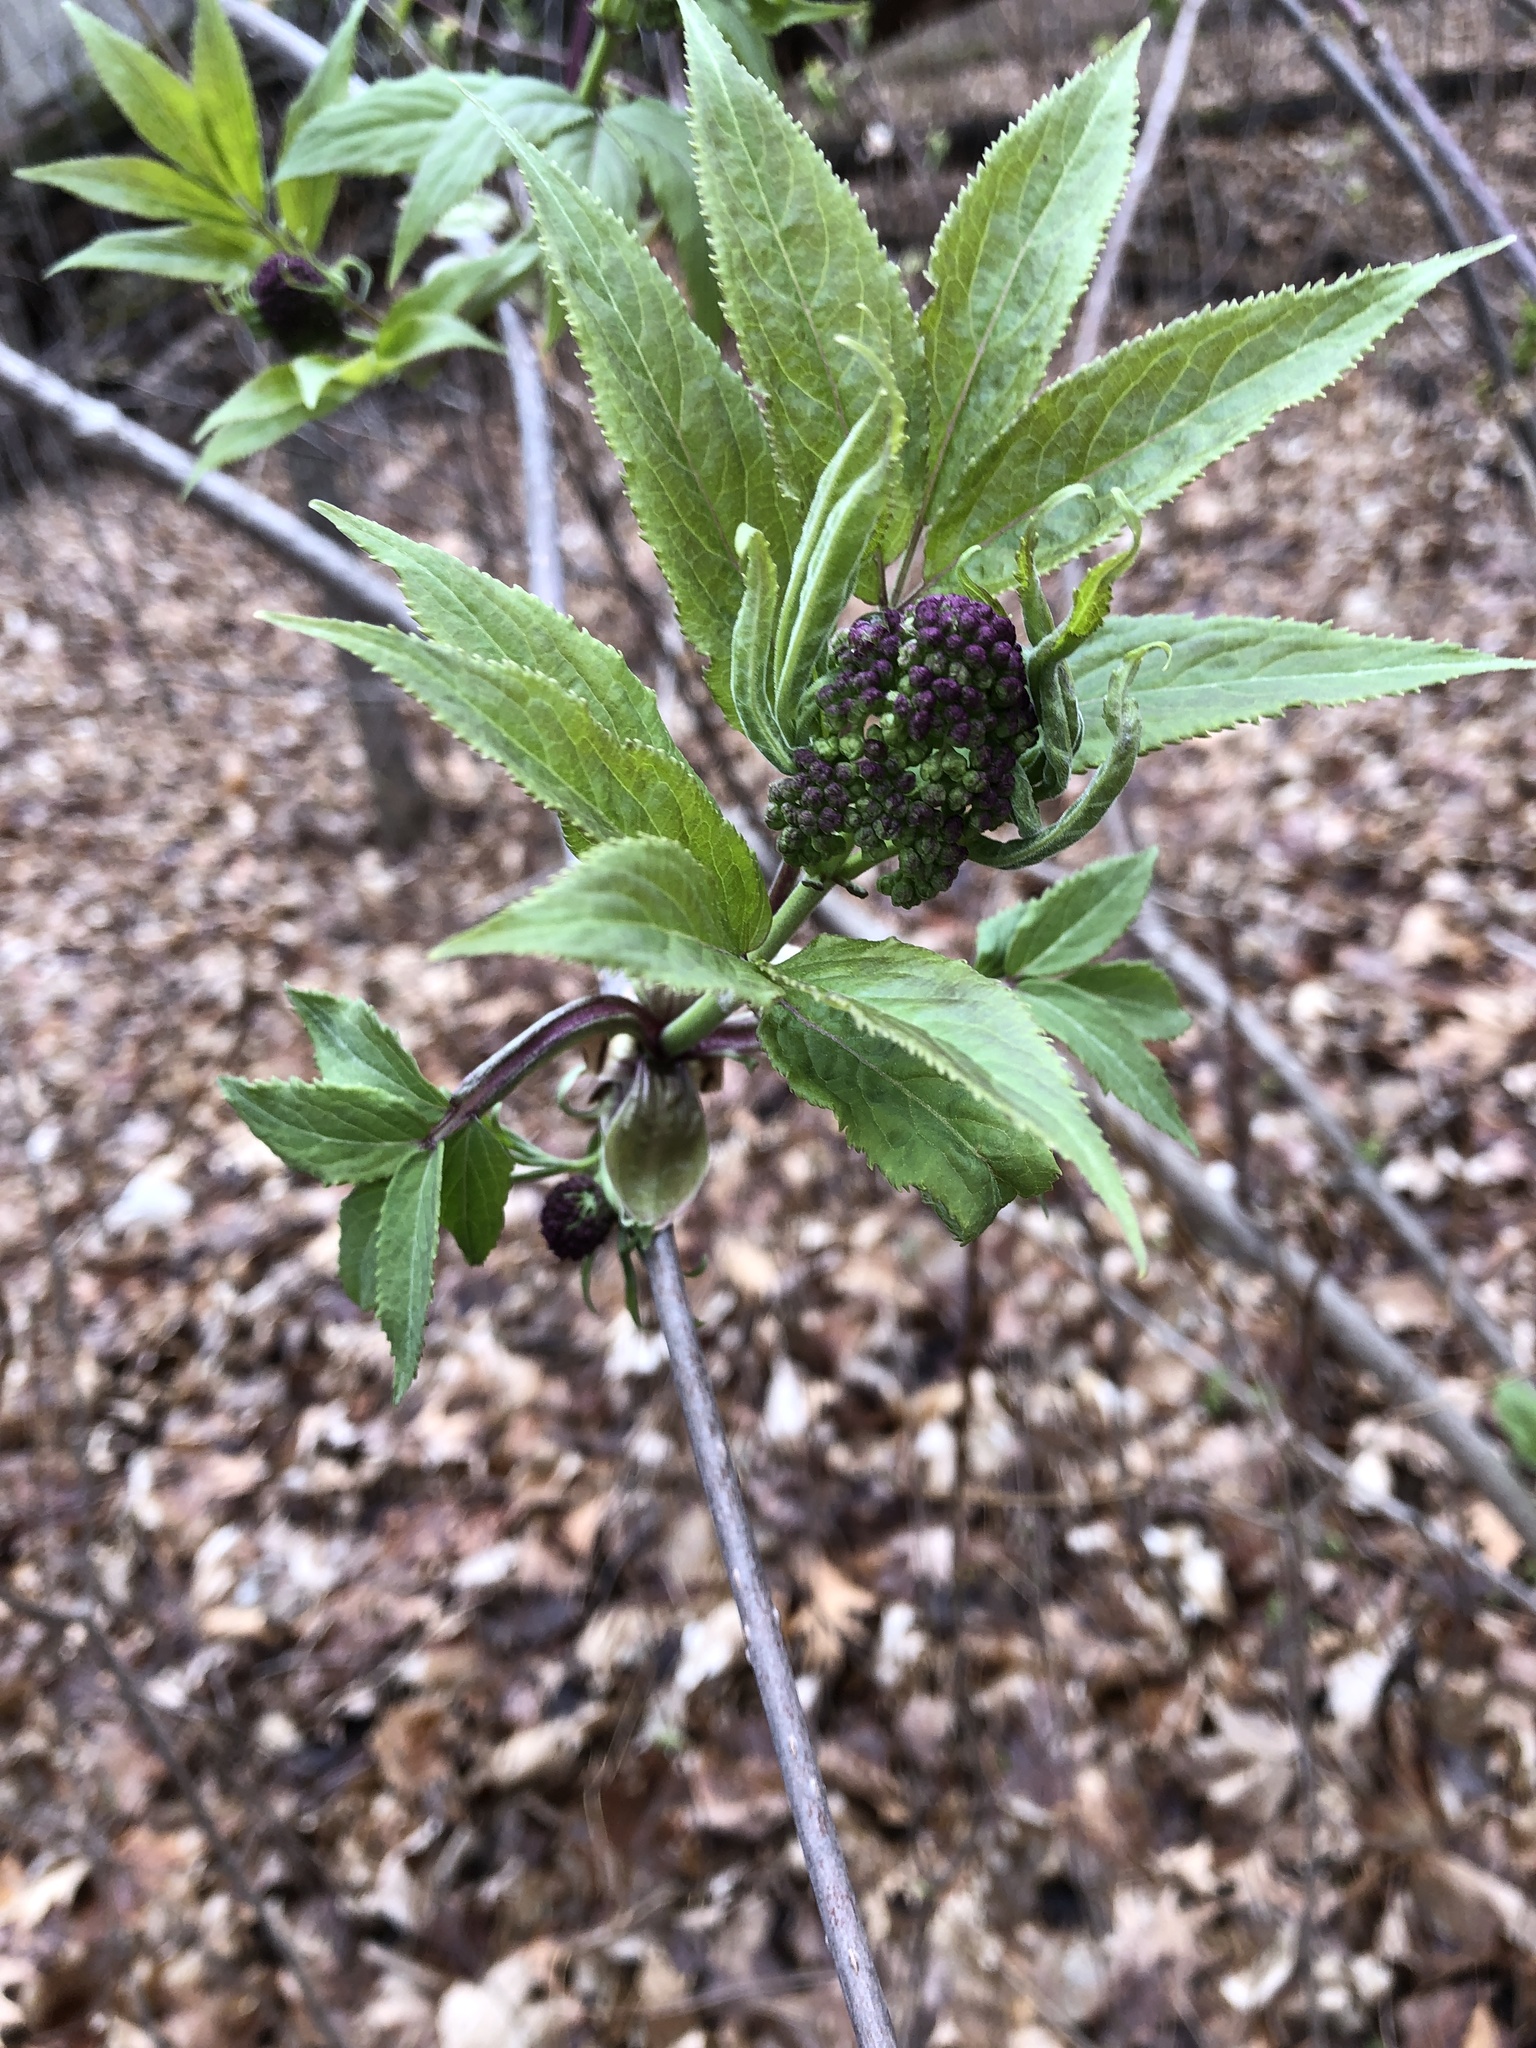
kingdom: Plantae
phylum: Tracheophyta
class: Magnoliopsida
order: Dipsacales
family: Viburnaceae
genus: Sambucus
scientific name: Sambucus racemosa
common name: Red-berried elder
